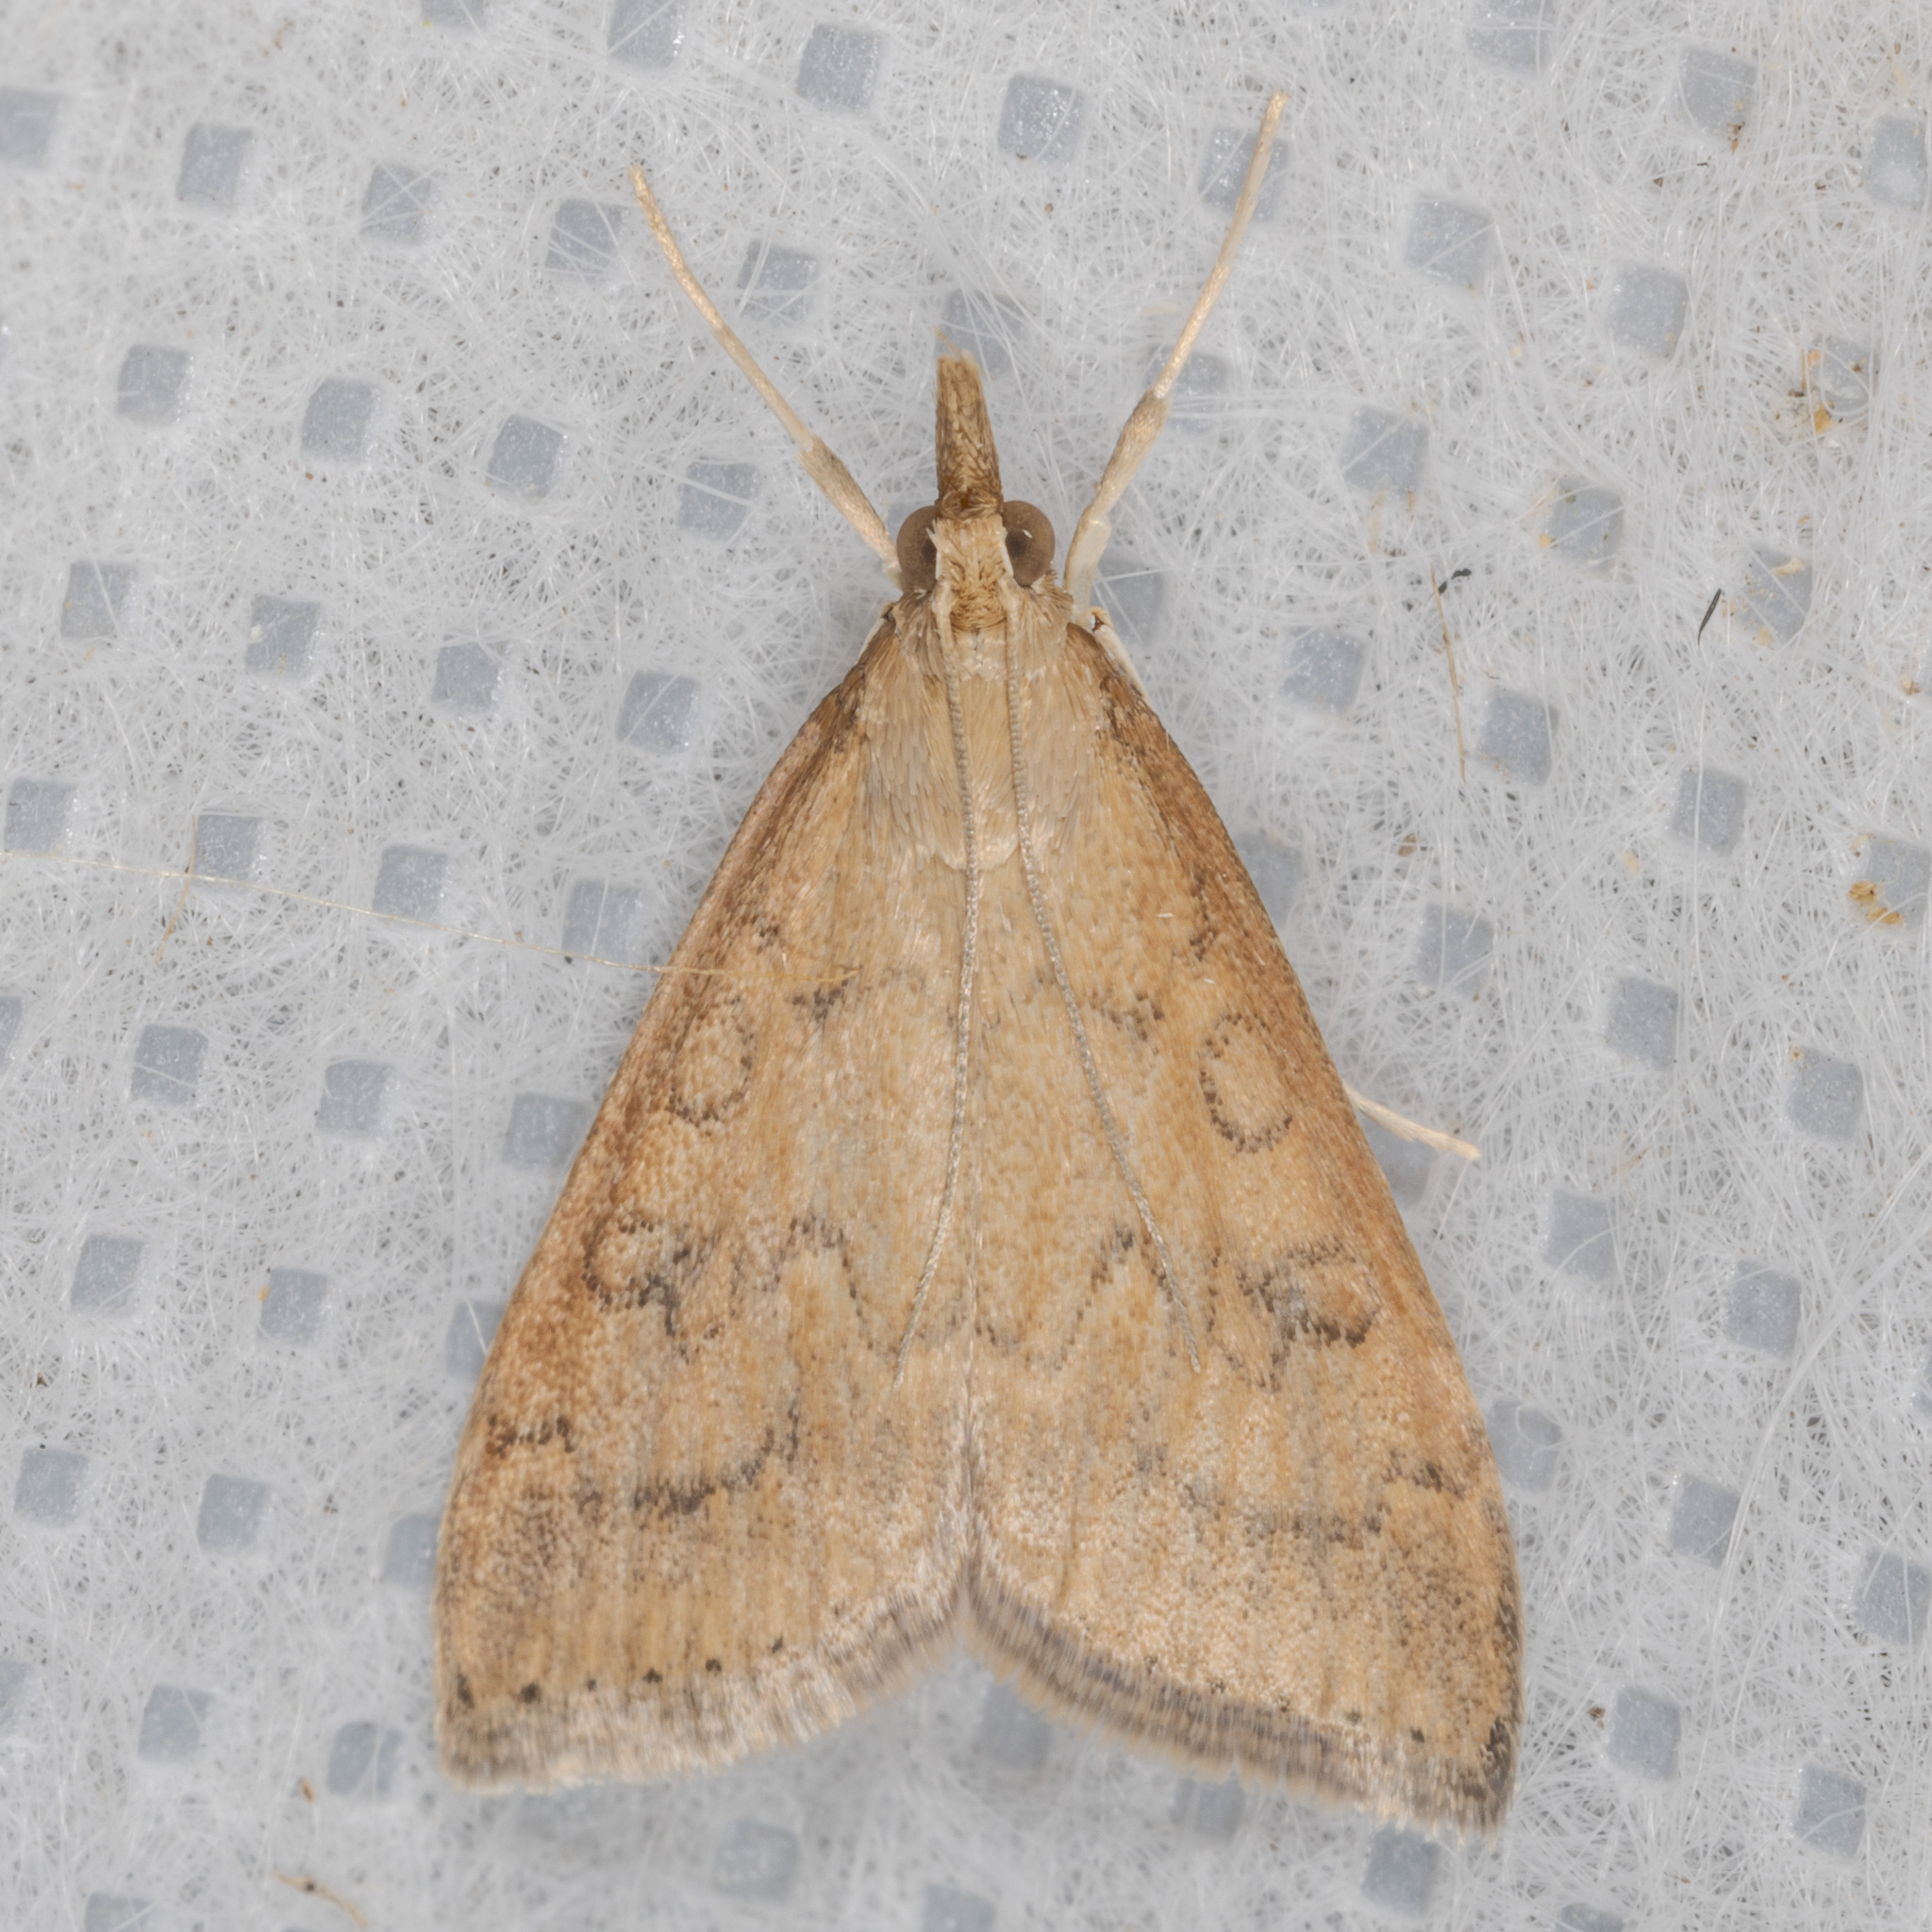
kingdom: Animalia
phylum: Arthropoda
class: Insecta
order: Lepidoptera
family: Crambidae
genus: Udea
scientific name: Udea rubigalis
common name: Celery leaftier moth
